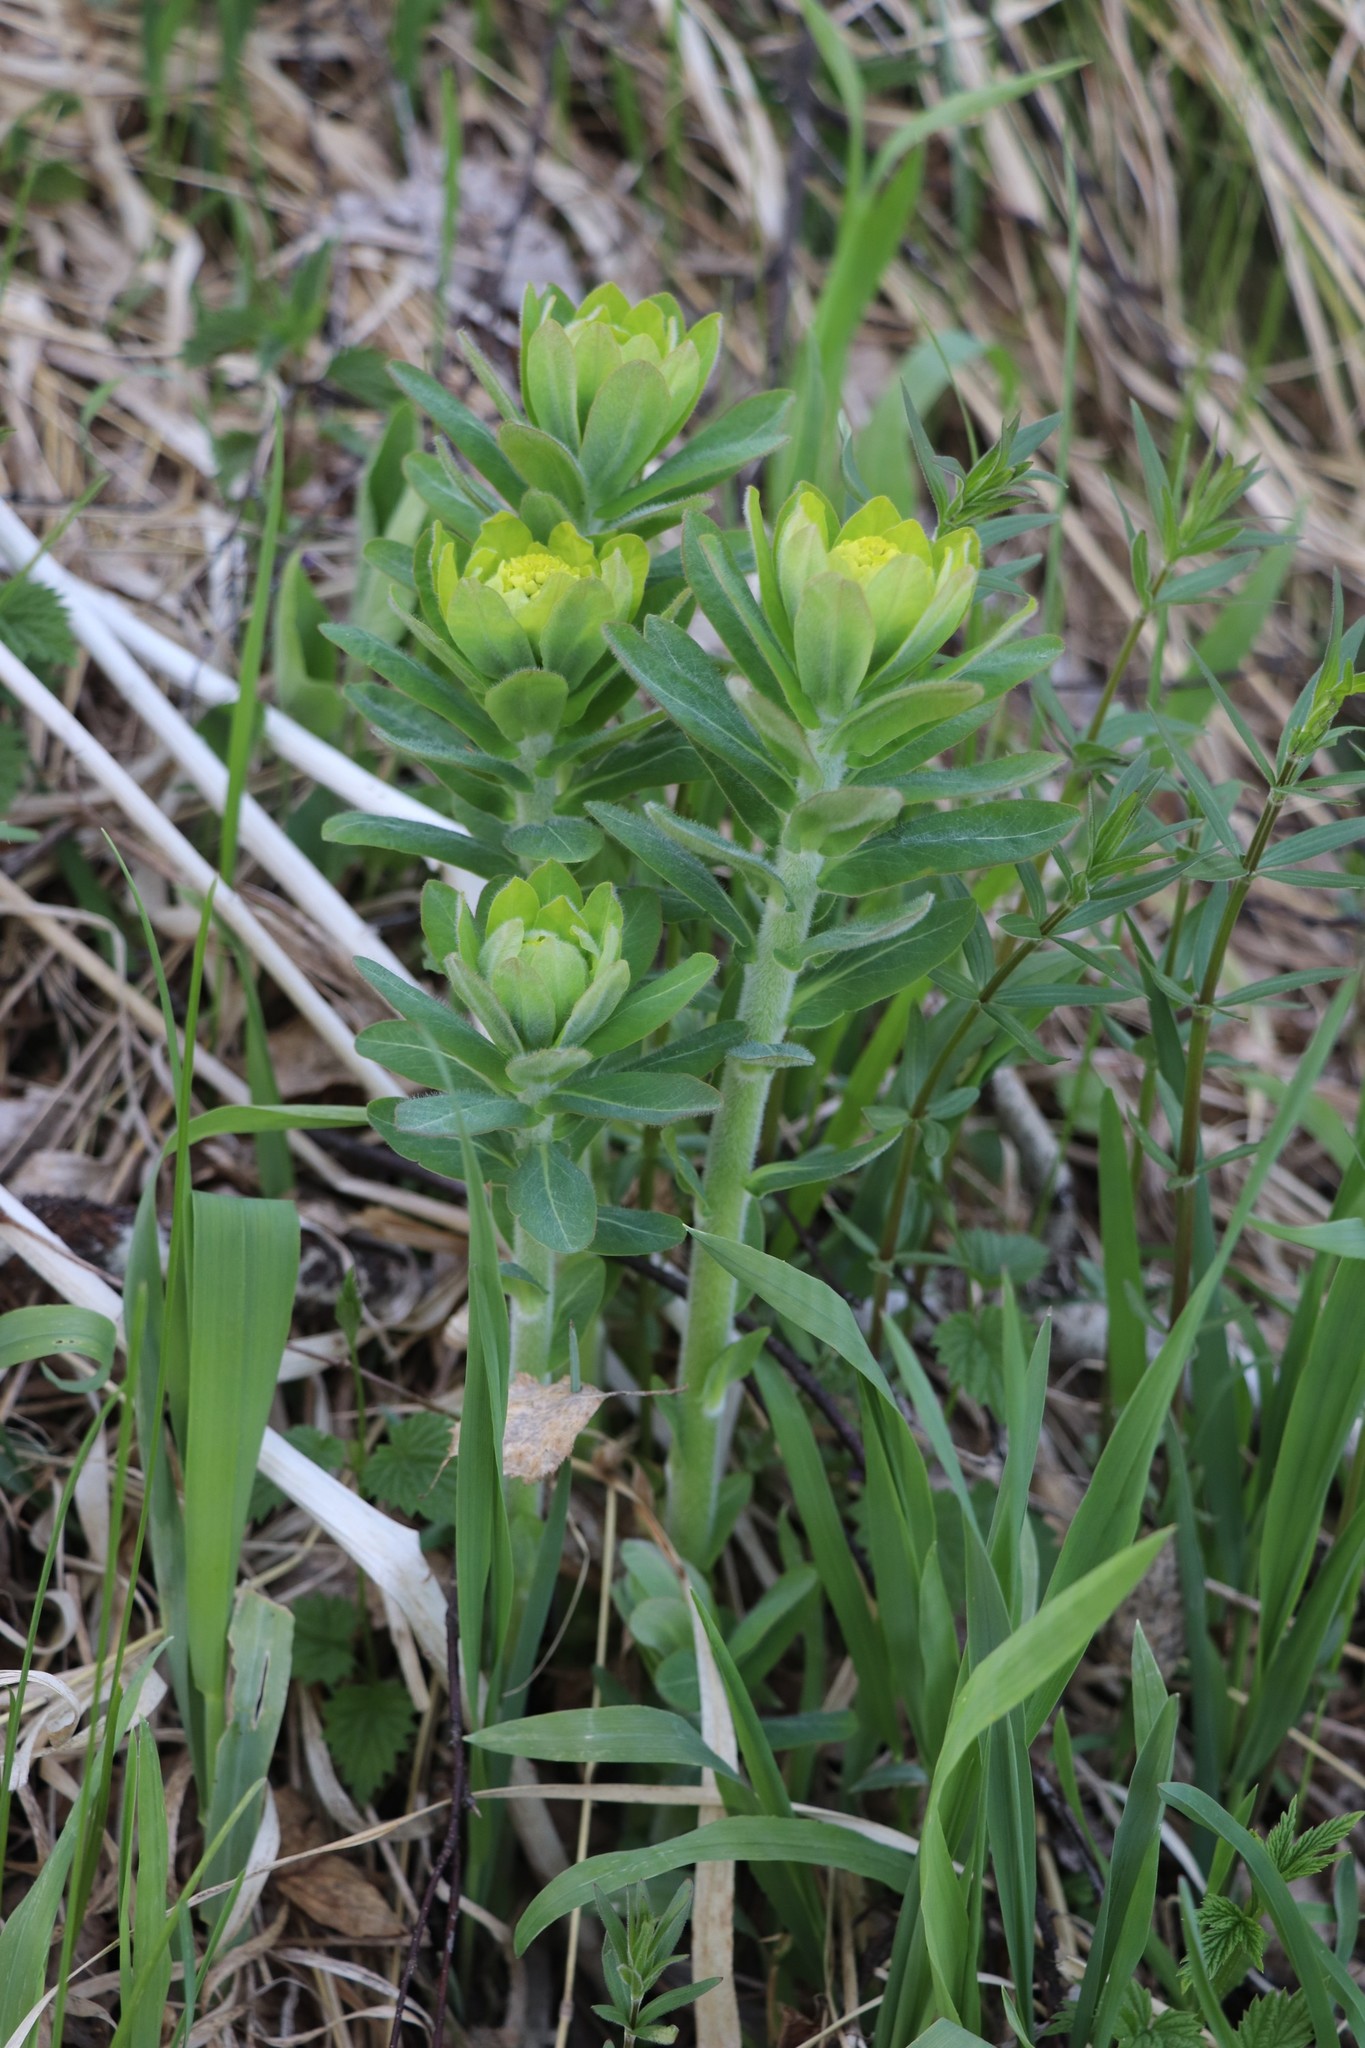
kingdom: Plantae
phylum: Tracheophyta
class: Magnoliopsida
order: Malpighiales
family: Euphorbiaceae
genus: Euphorbia
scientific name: Euphorbia pilosa
